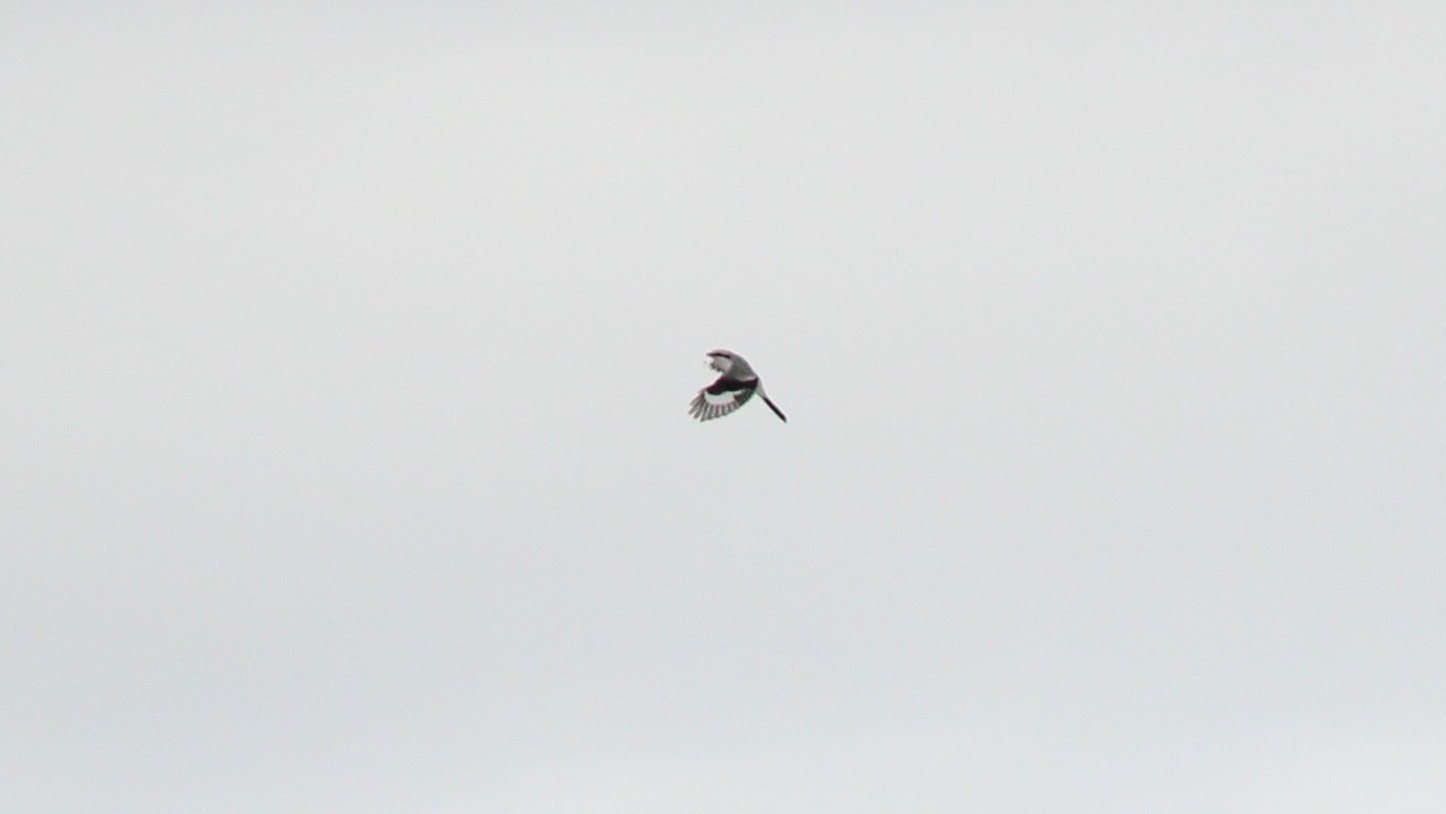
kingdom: Animalia
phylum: Chordata
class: Aves
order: Passeriformes
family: Laniidae
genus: Lanius
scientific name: Lanius excubitor
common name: Great grey shrike
